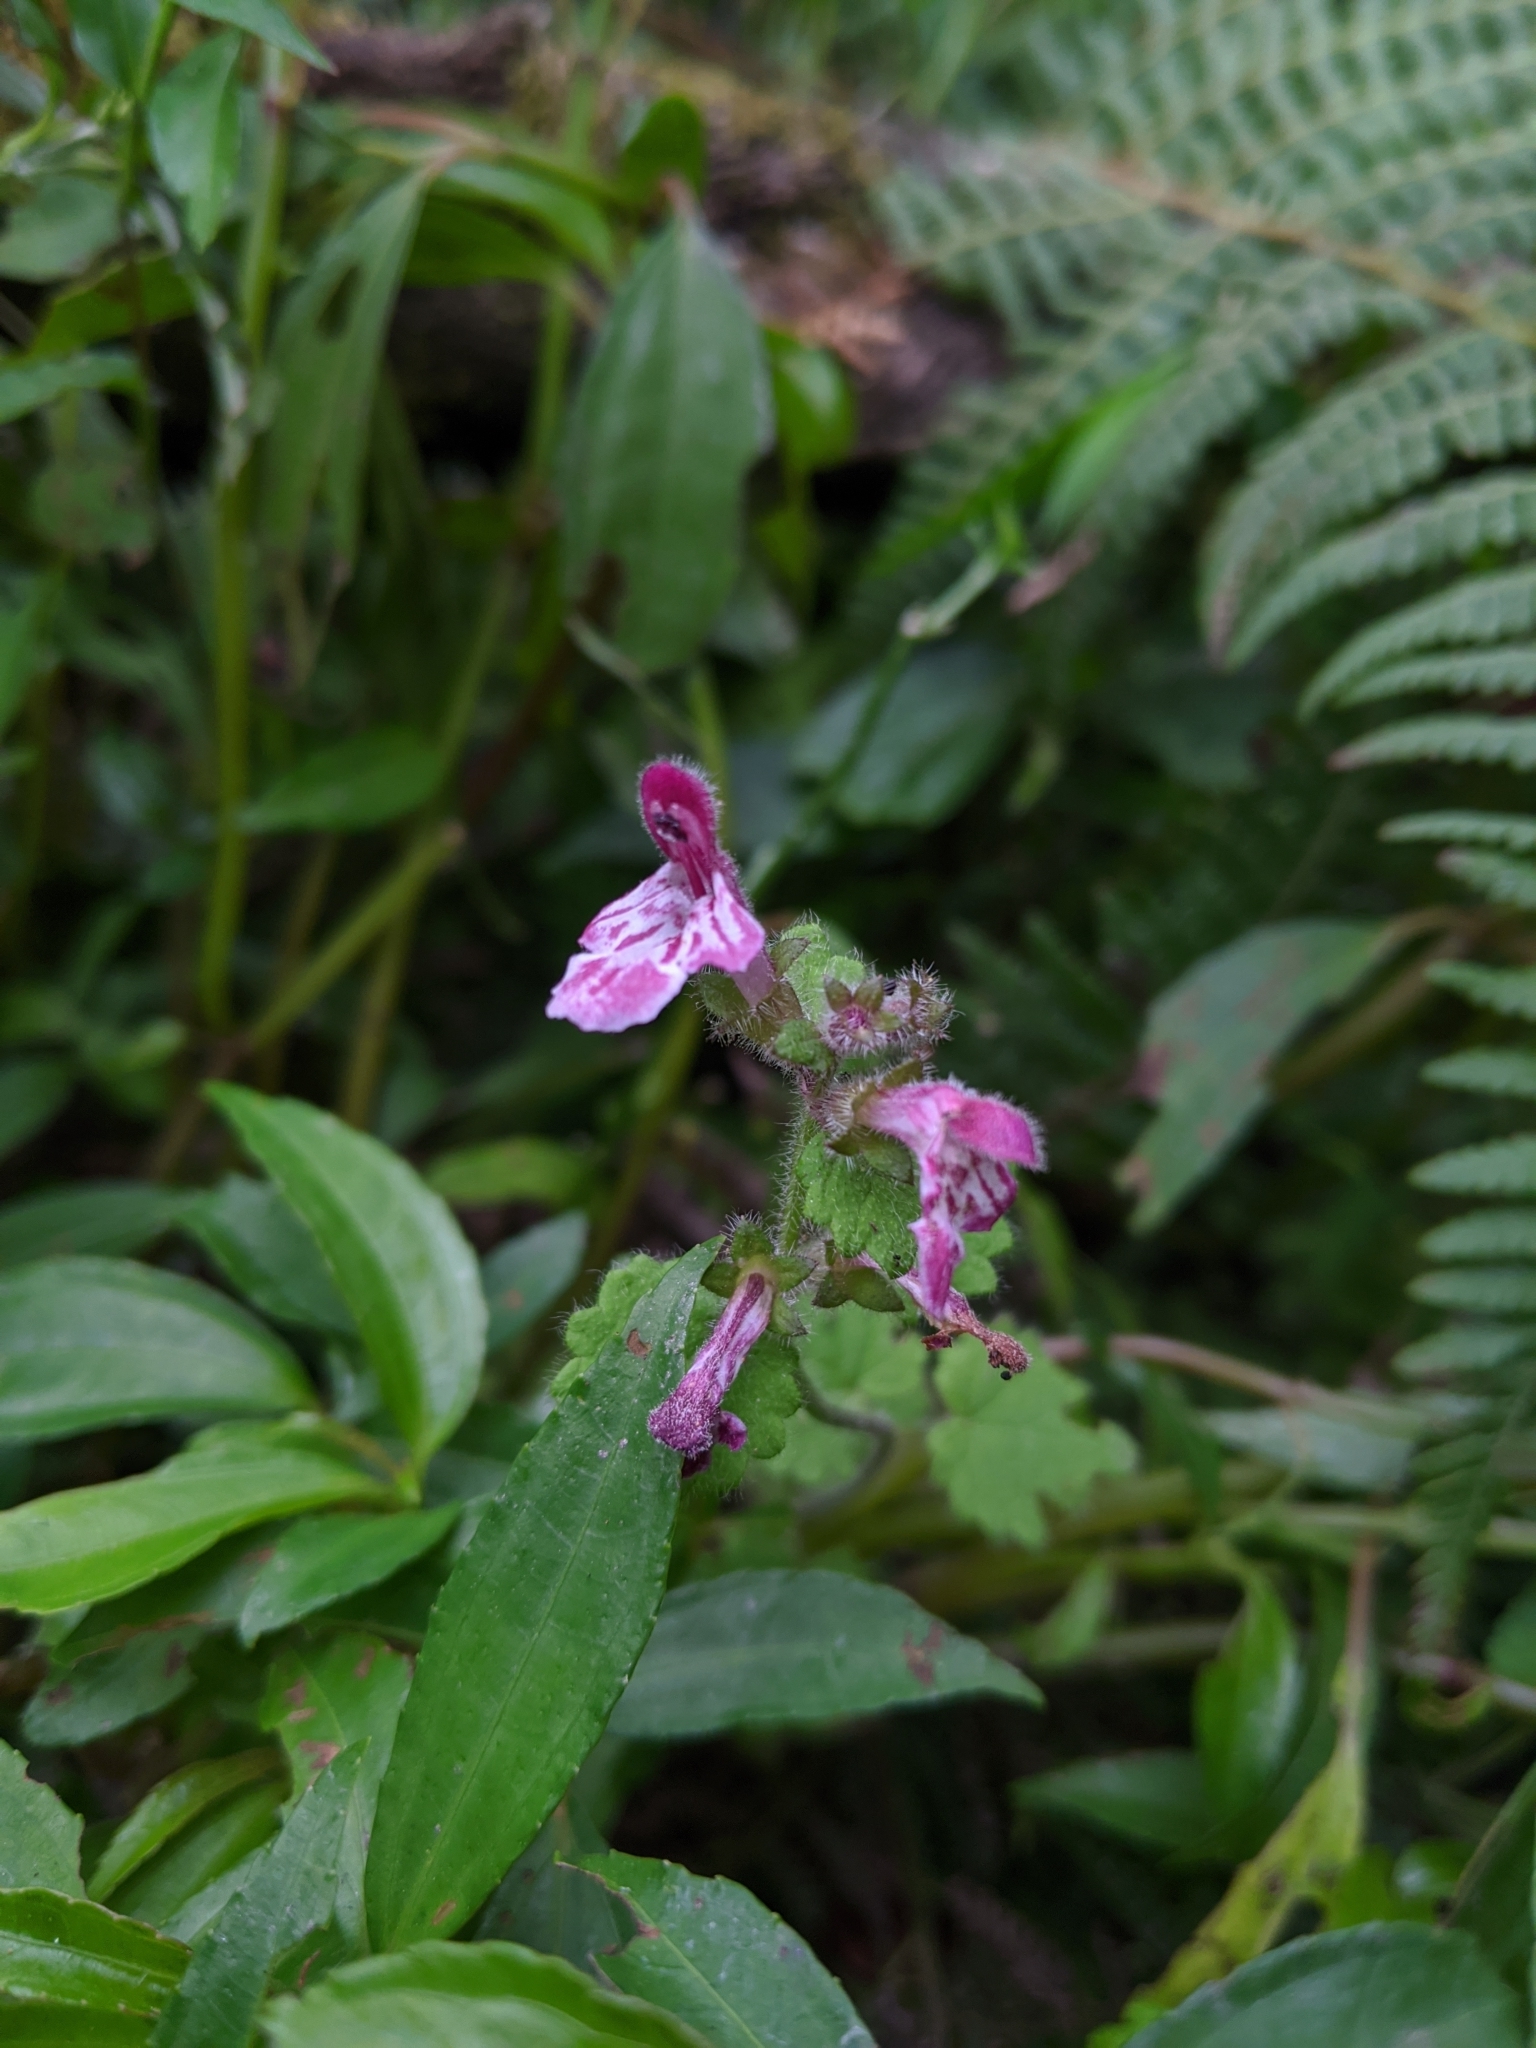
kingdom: Plantae
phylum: Tracheophyta
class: Magnoliopsida
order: Lamiales
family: Lamiaceae
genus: Suzukia
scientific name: Suzukia shikikunensis
